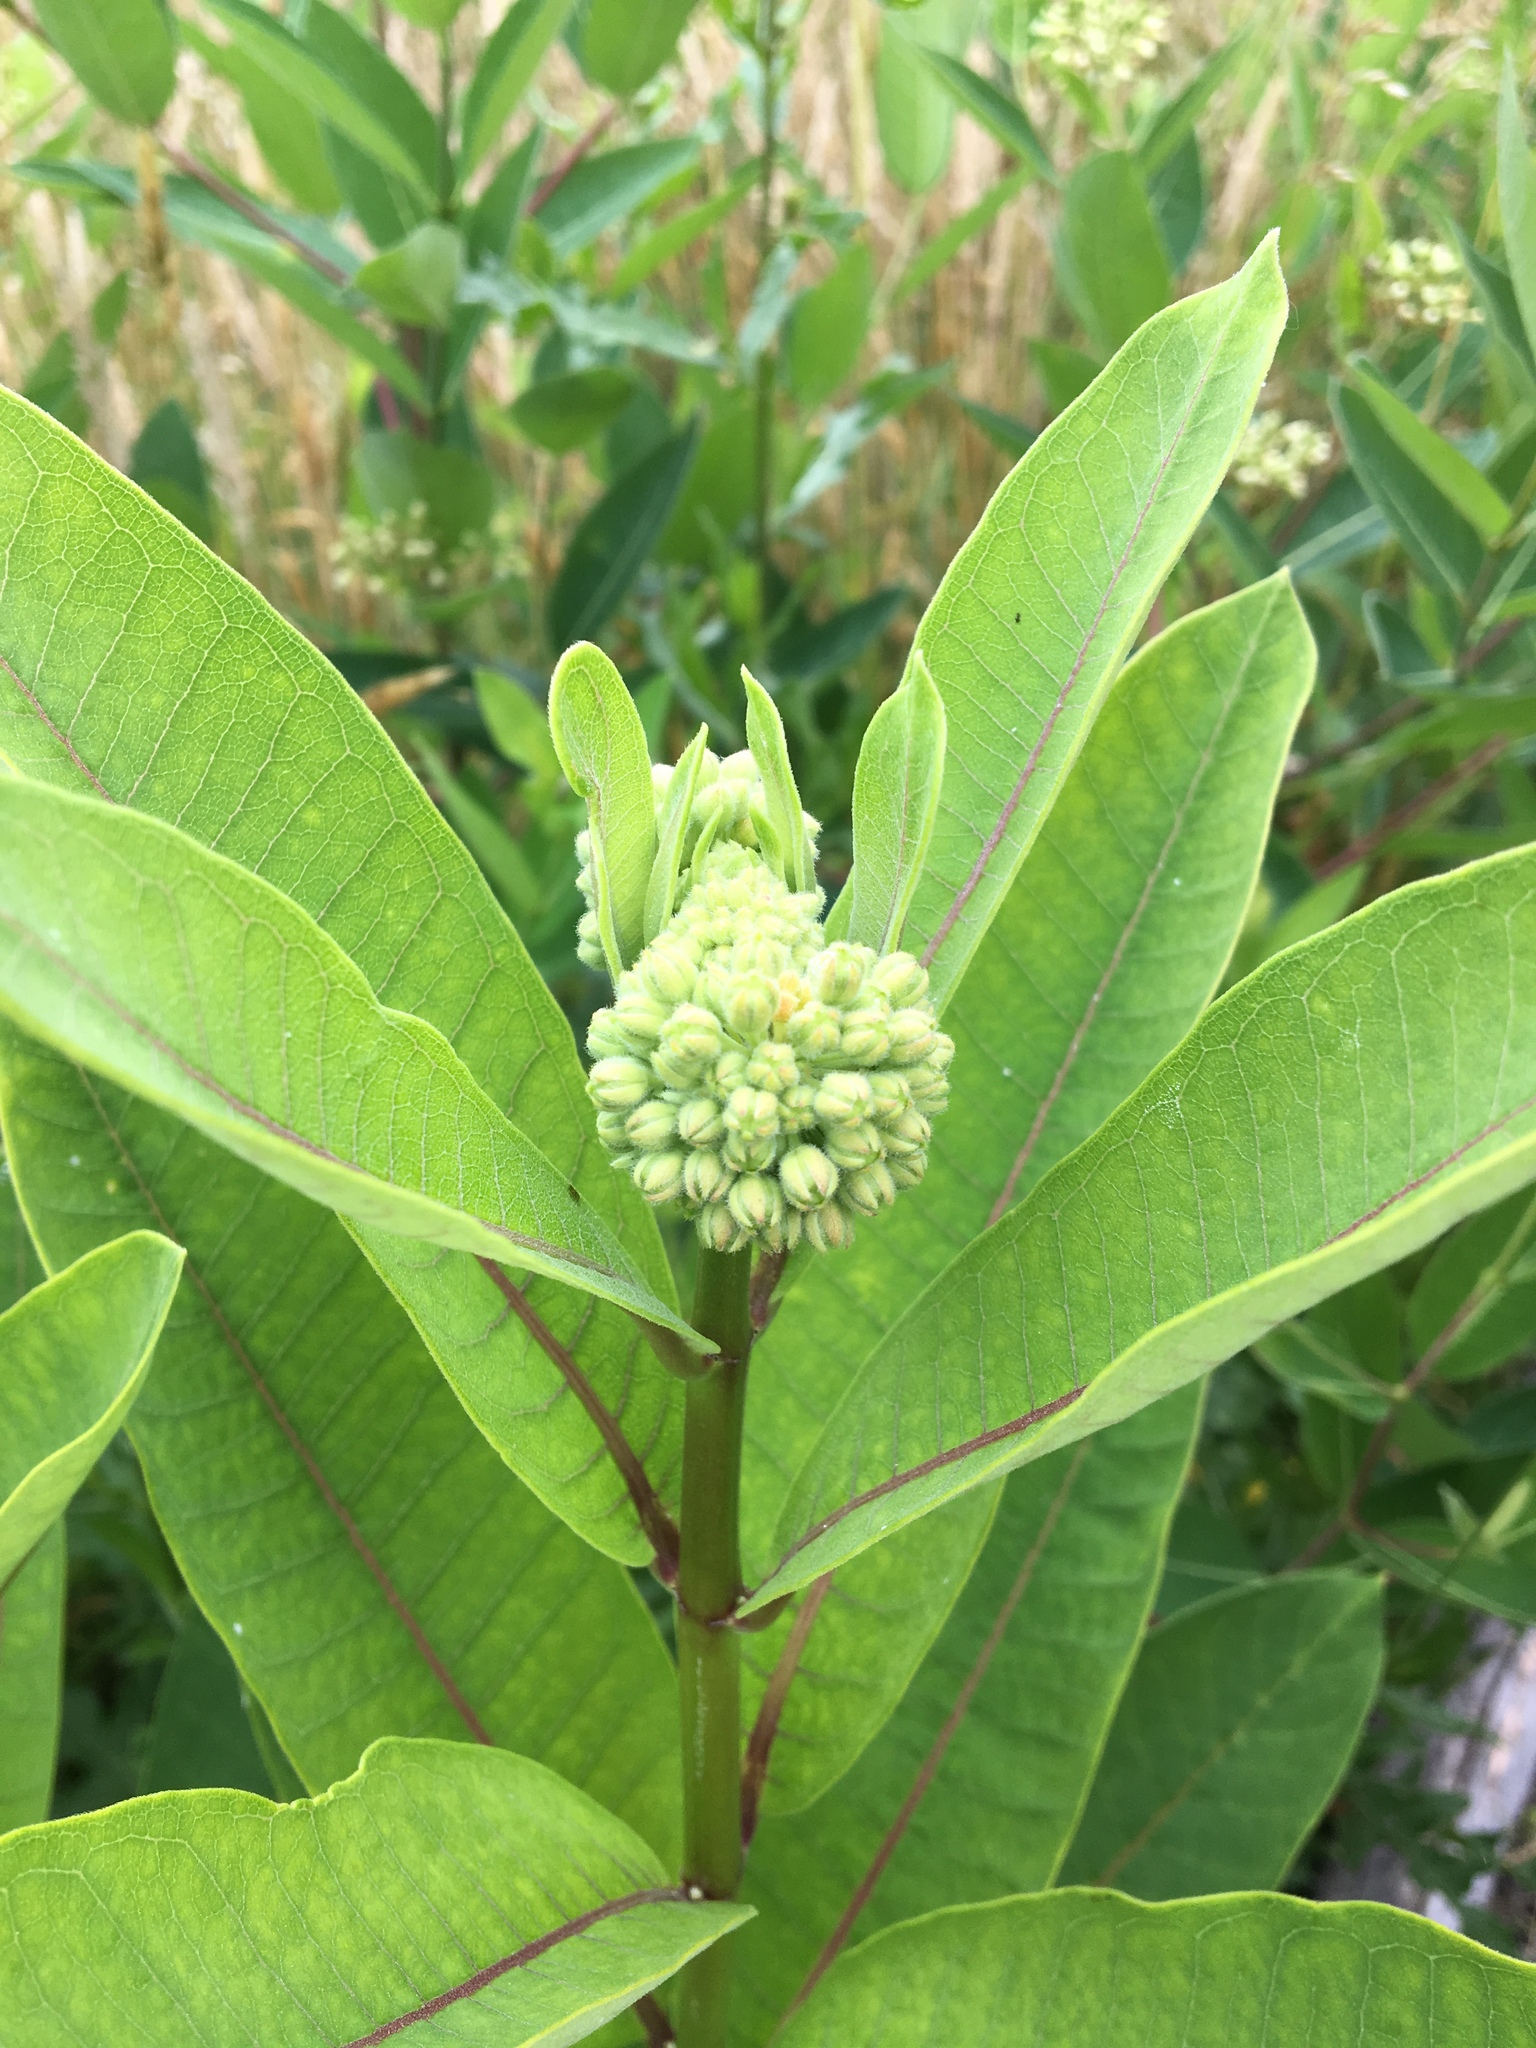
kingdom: Plantae
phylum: Tracheophyta
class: Magnoliopsida
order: Gentianales
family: Apocynaceae
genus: Asclepias
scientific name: Asclepias syriaca
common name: Common milkweed
